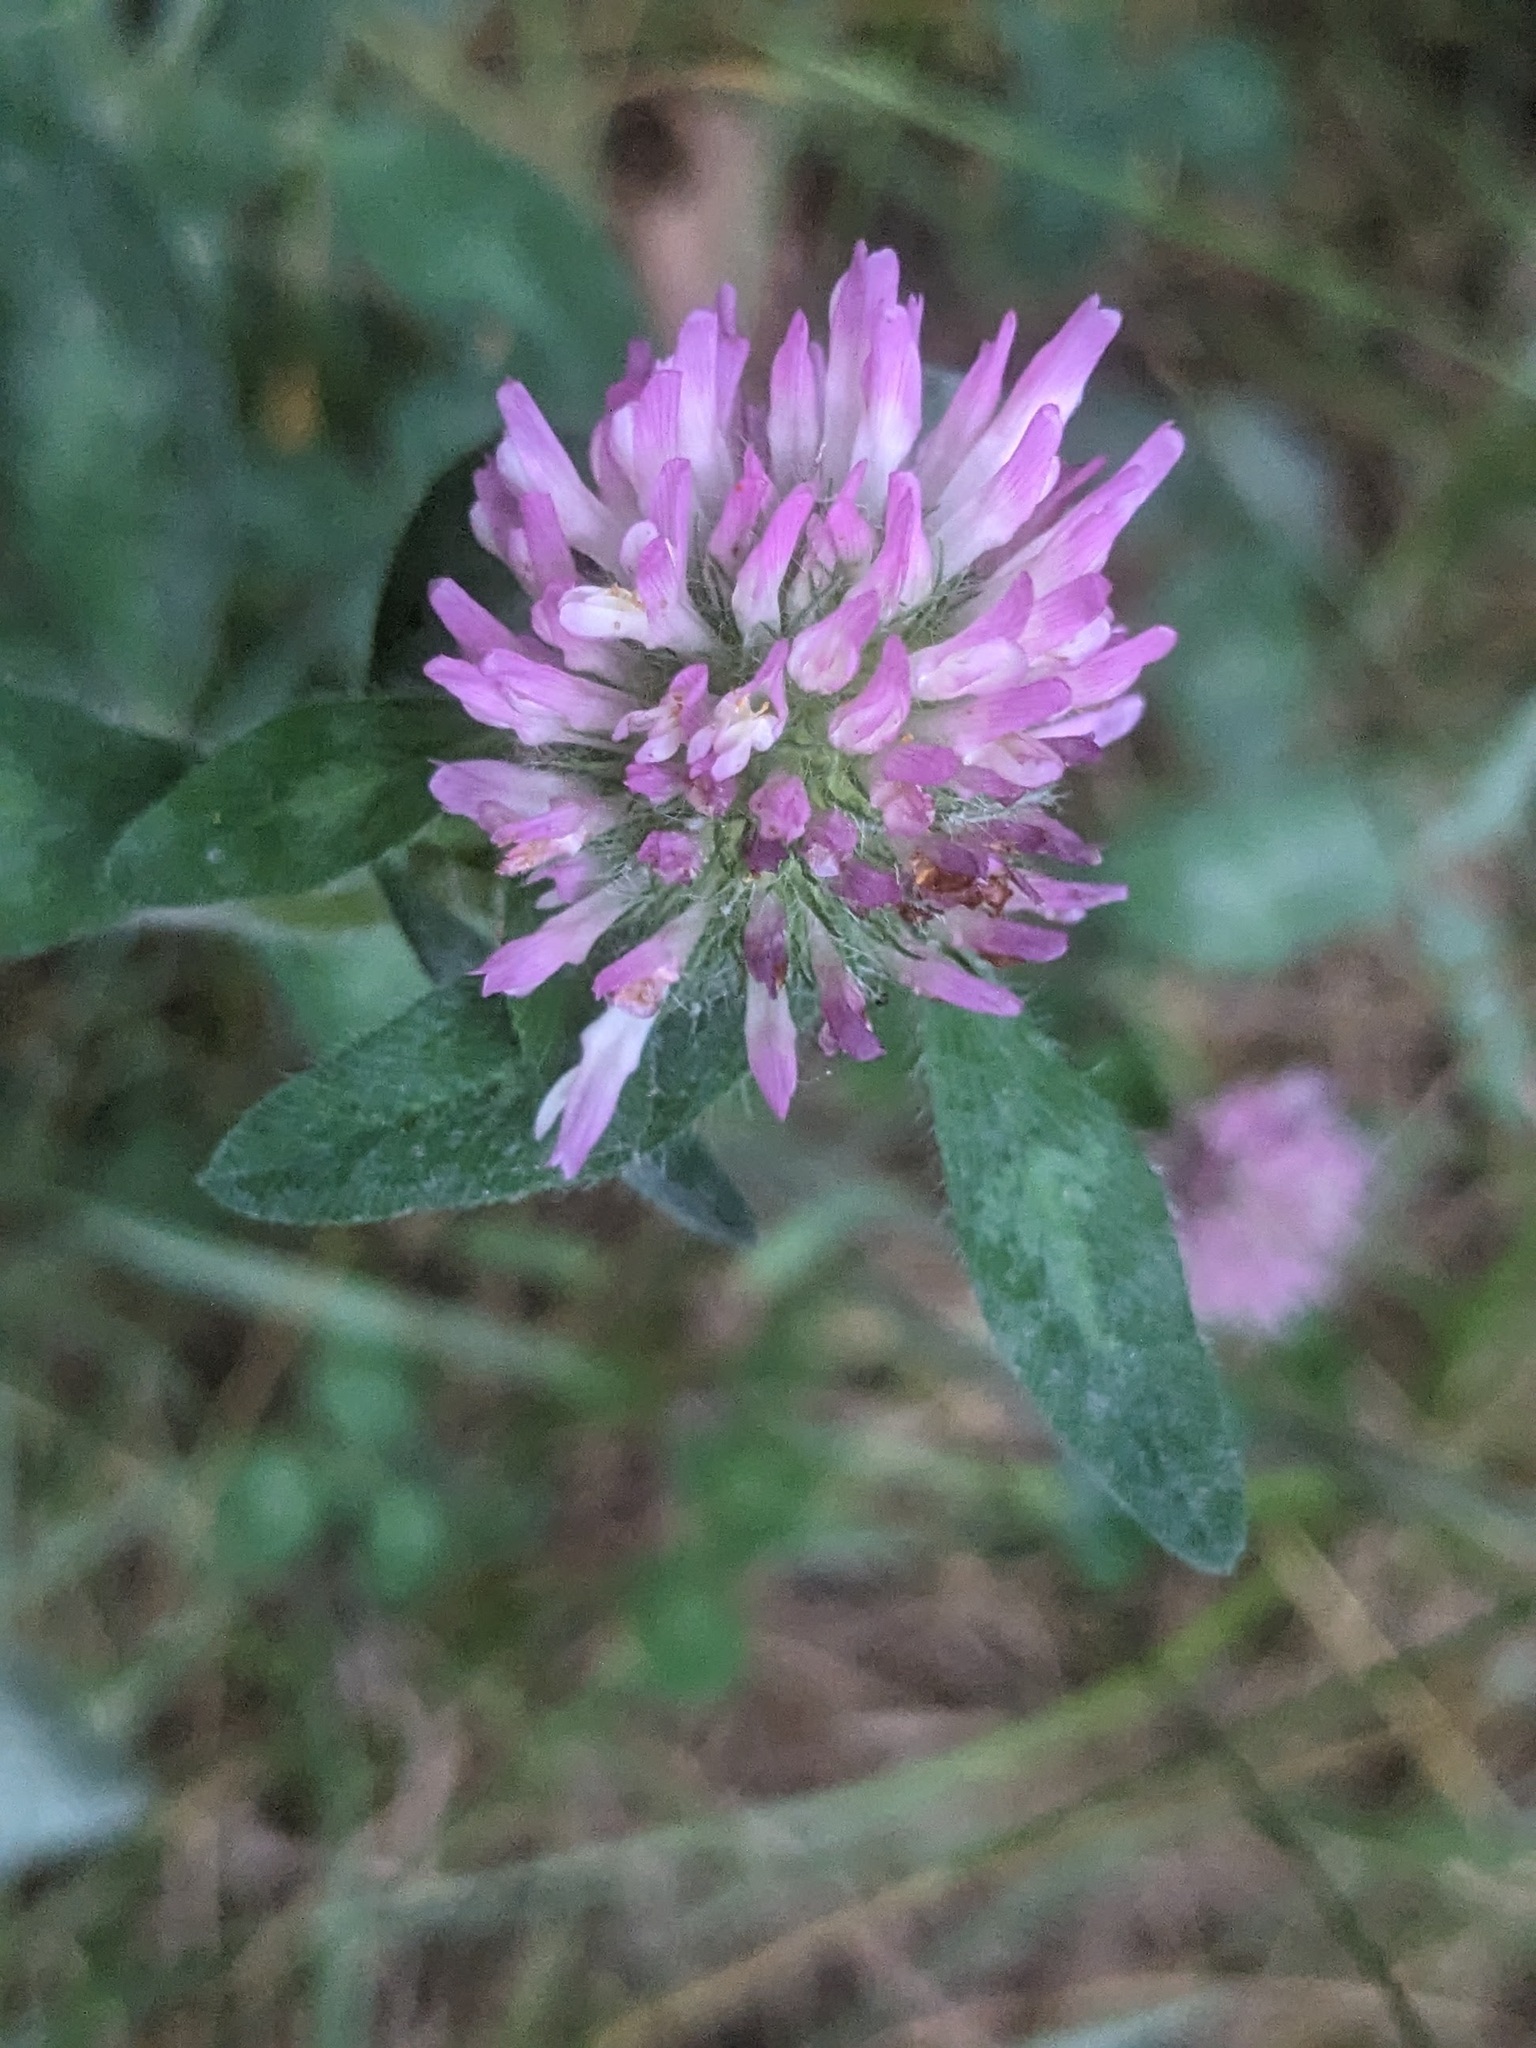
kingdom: Plantae
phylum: Tracheophyta
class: Magnoliopsida
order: Fabales
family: Fabaceae
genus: Trifolium
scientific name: Trifolium pratense
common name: Red clover
